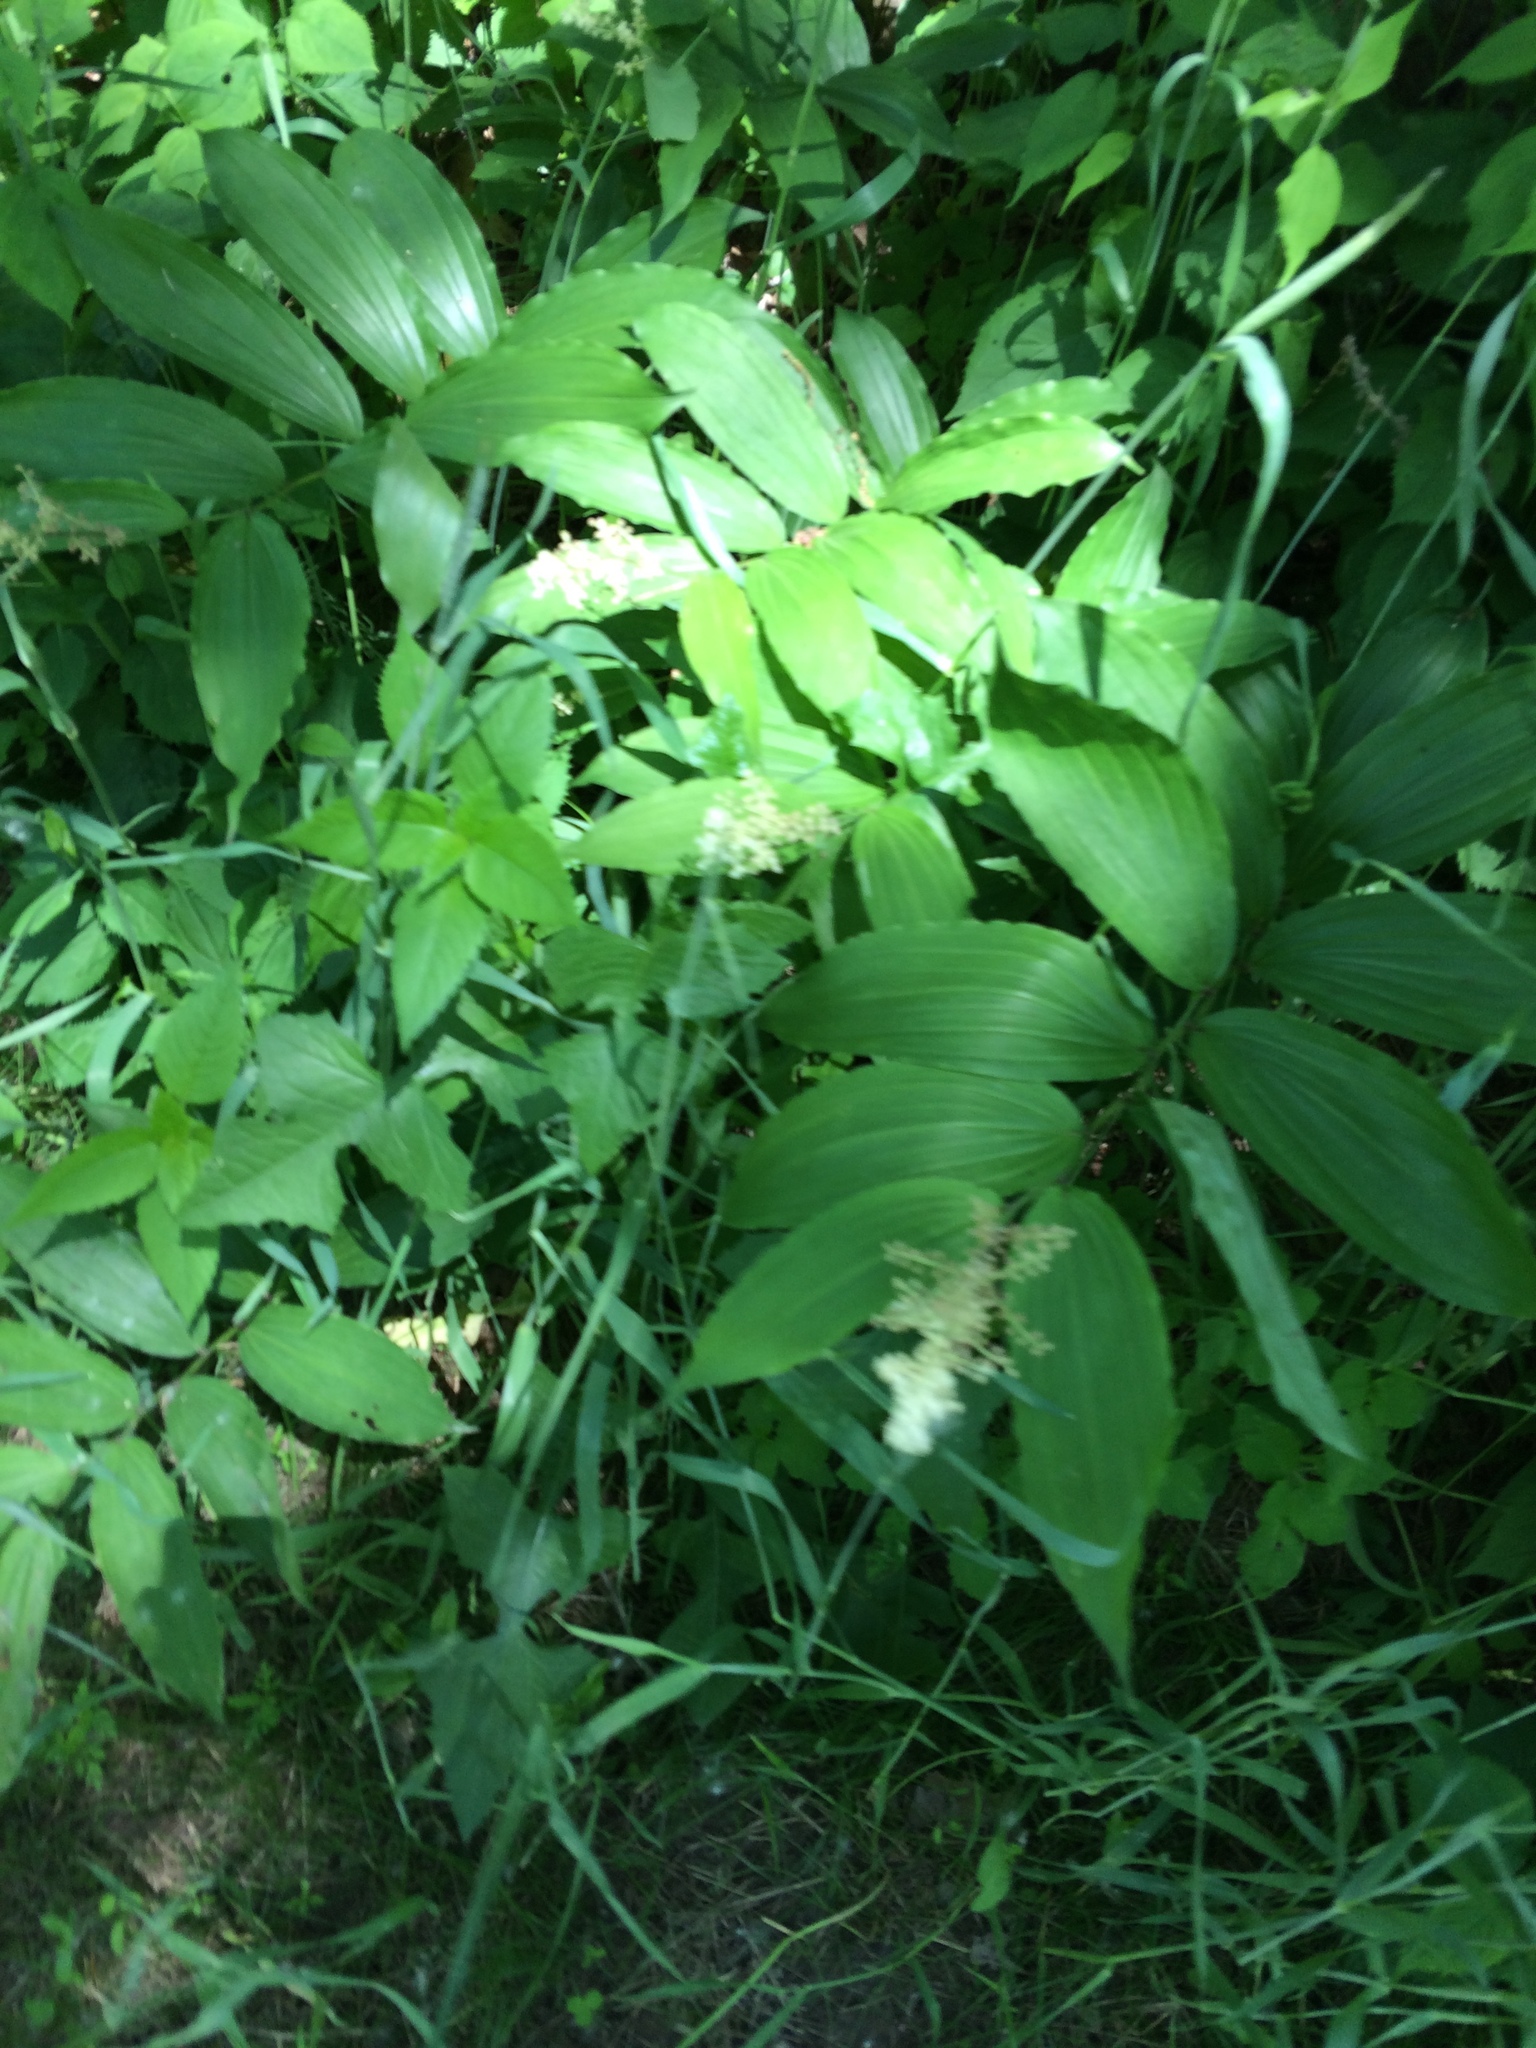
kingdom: Plantae
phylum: Tracheophyta
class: Liliopsida
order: Asparagales
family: Asparagaceae
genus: Maianthemum
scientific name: Maianthemum racemosum
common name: False spikenard
